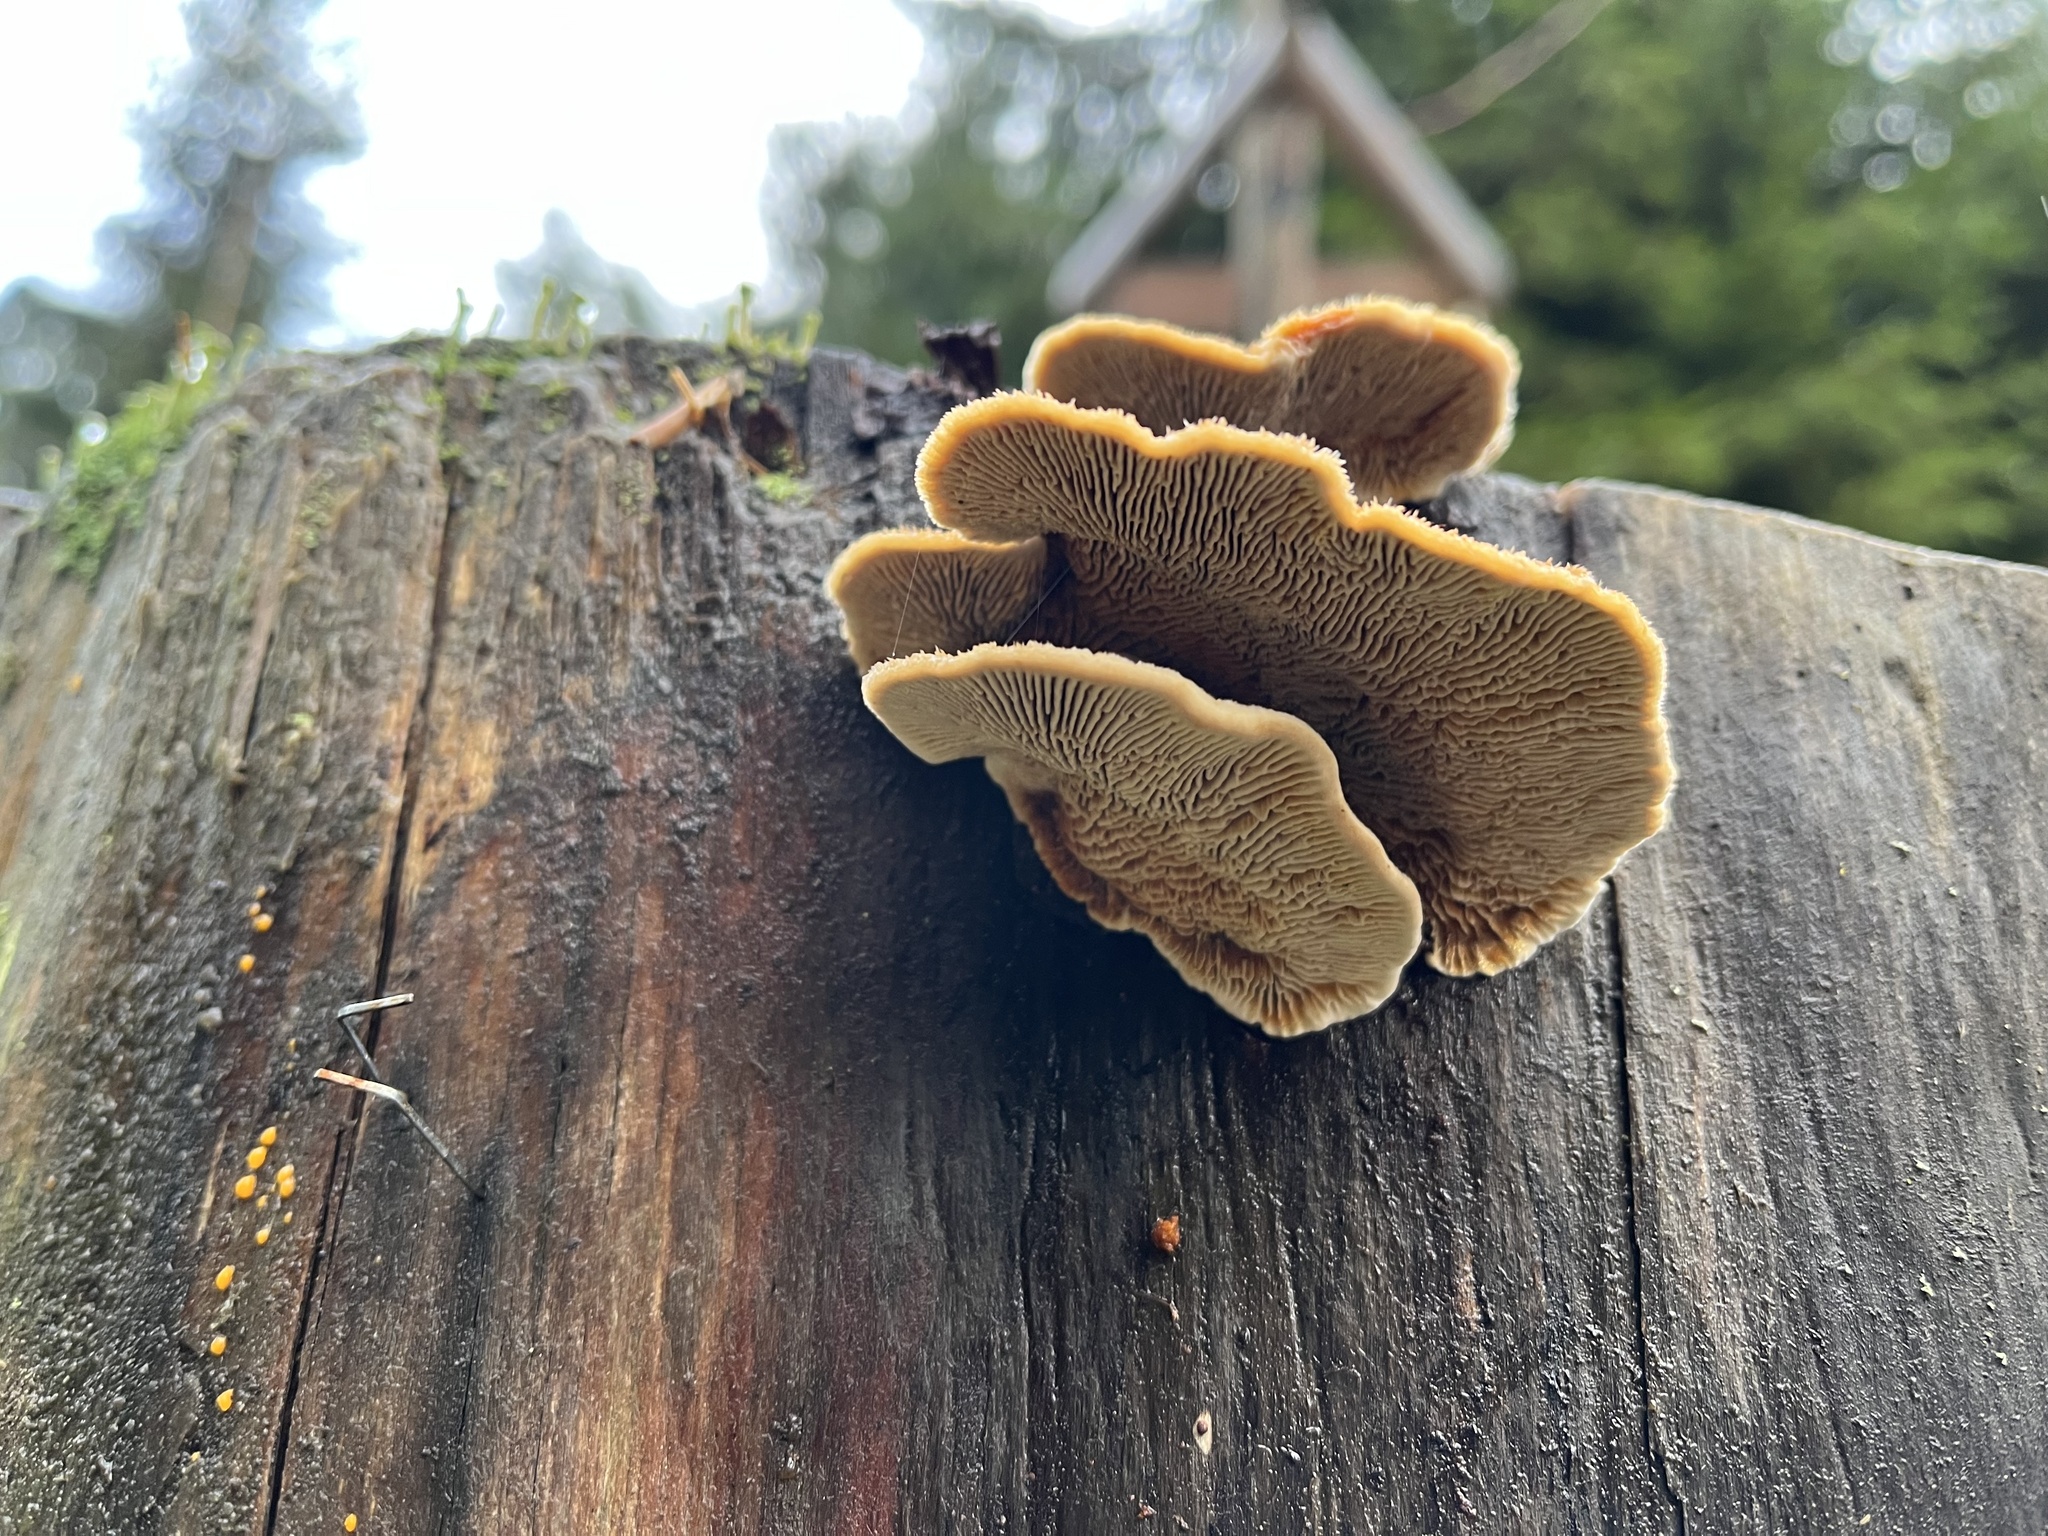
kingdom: Fungi
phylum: Basidiomycota
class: Agaricomycetes
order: Gloeophyllales
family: Gloeophyllaceae
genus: Gloeophyllum
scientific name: Gloeophyllum sepiarium
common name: Conifer mazegill
